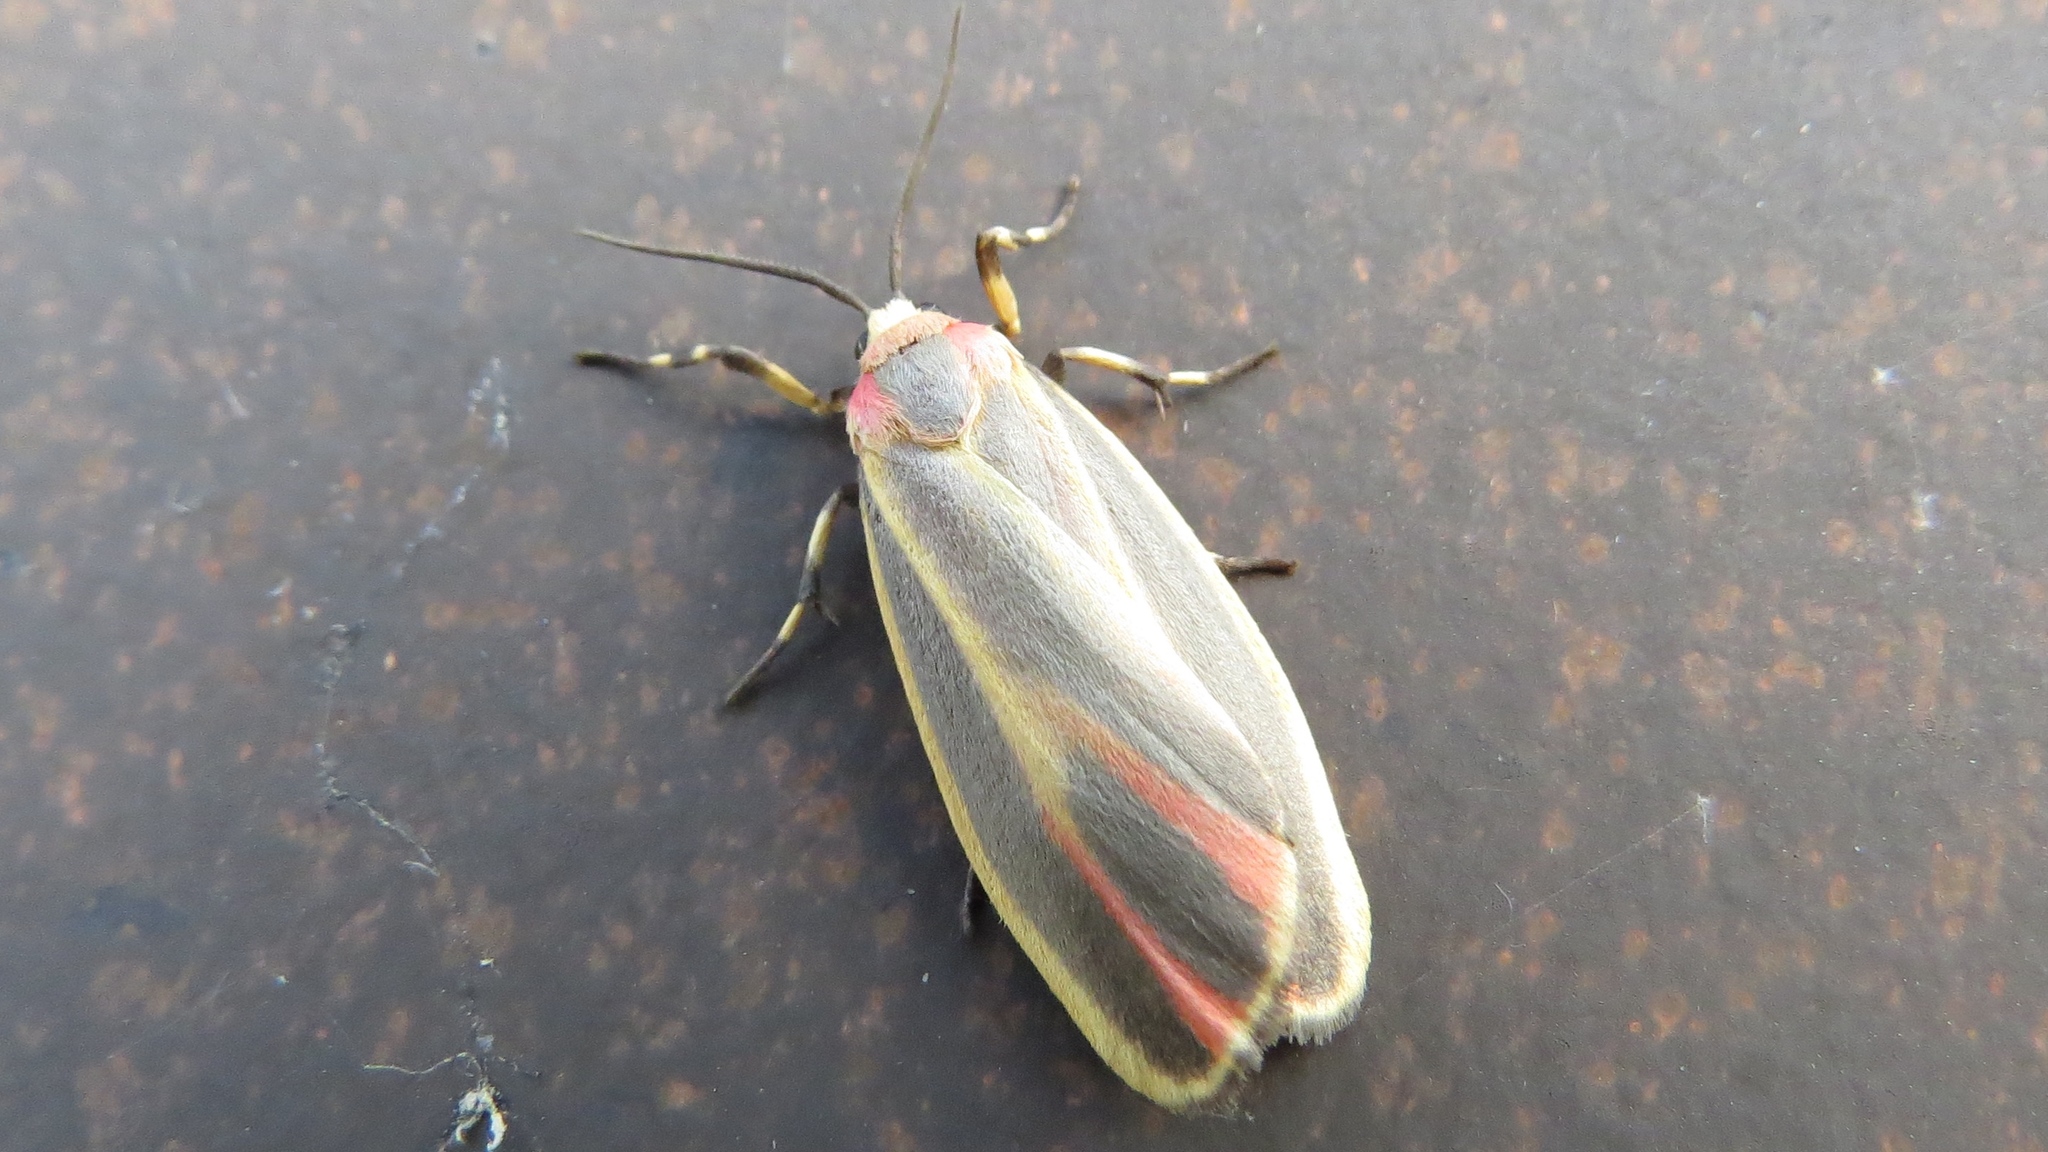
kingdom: Animalia
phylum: Arthropoda
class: Insecta
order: Lepidoptera
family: Erebidae
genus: Hypoprepia
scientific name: Hypoprepia fucosa
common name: Painted lichen moth
